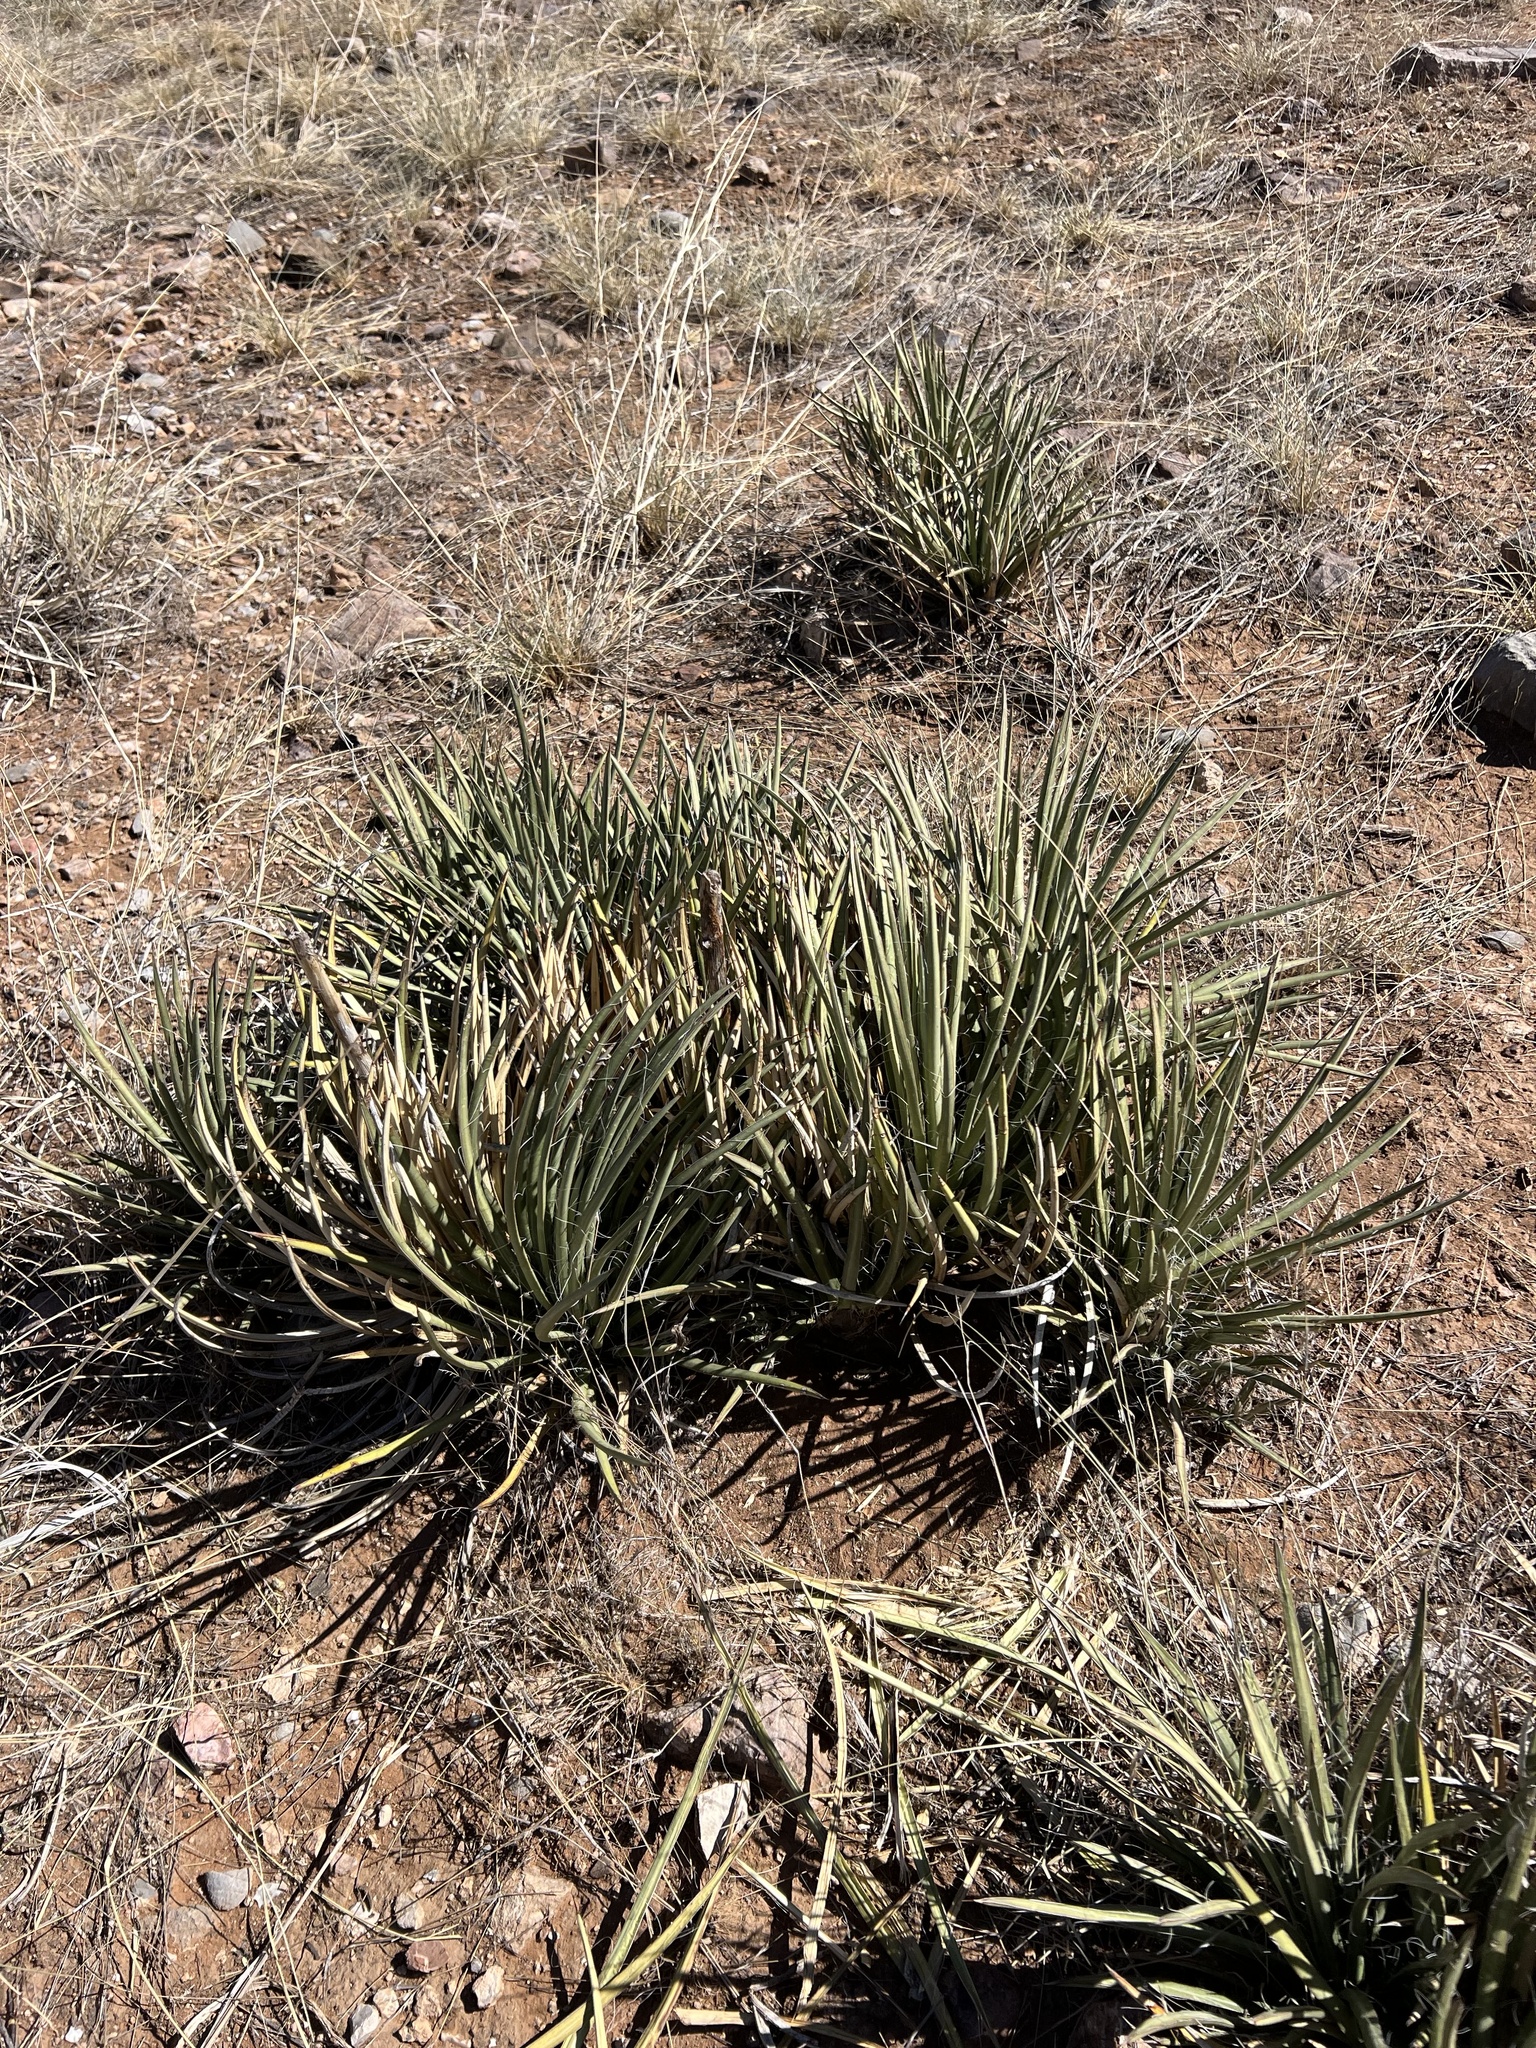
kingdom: Plantae
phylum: Tracheophyta
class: Liliopsida
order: Asparagales
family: Asparagaceae
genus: Agave
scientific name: Agave schottii
